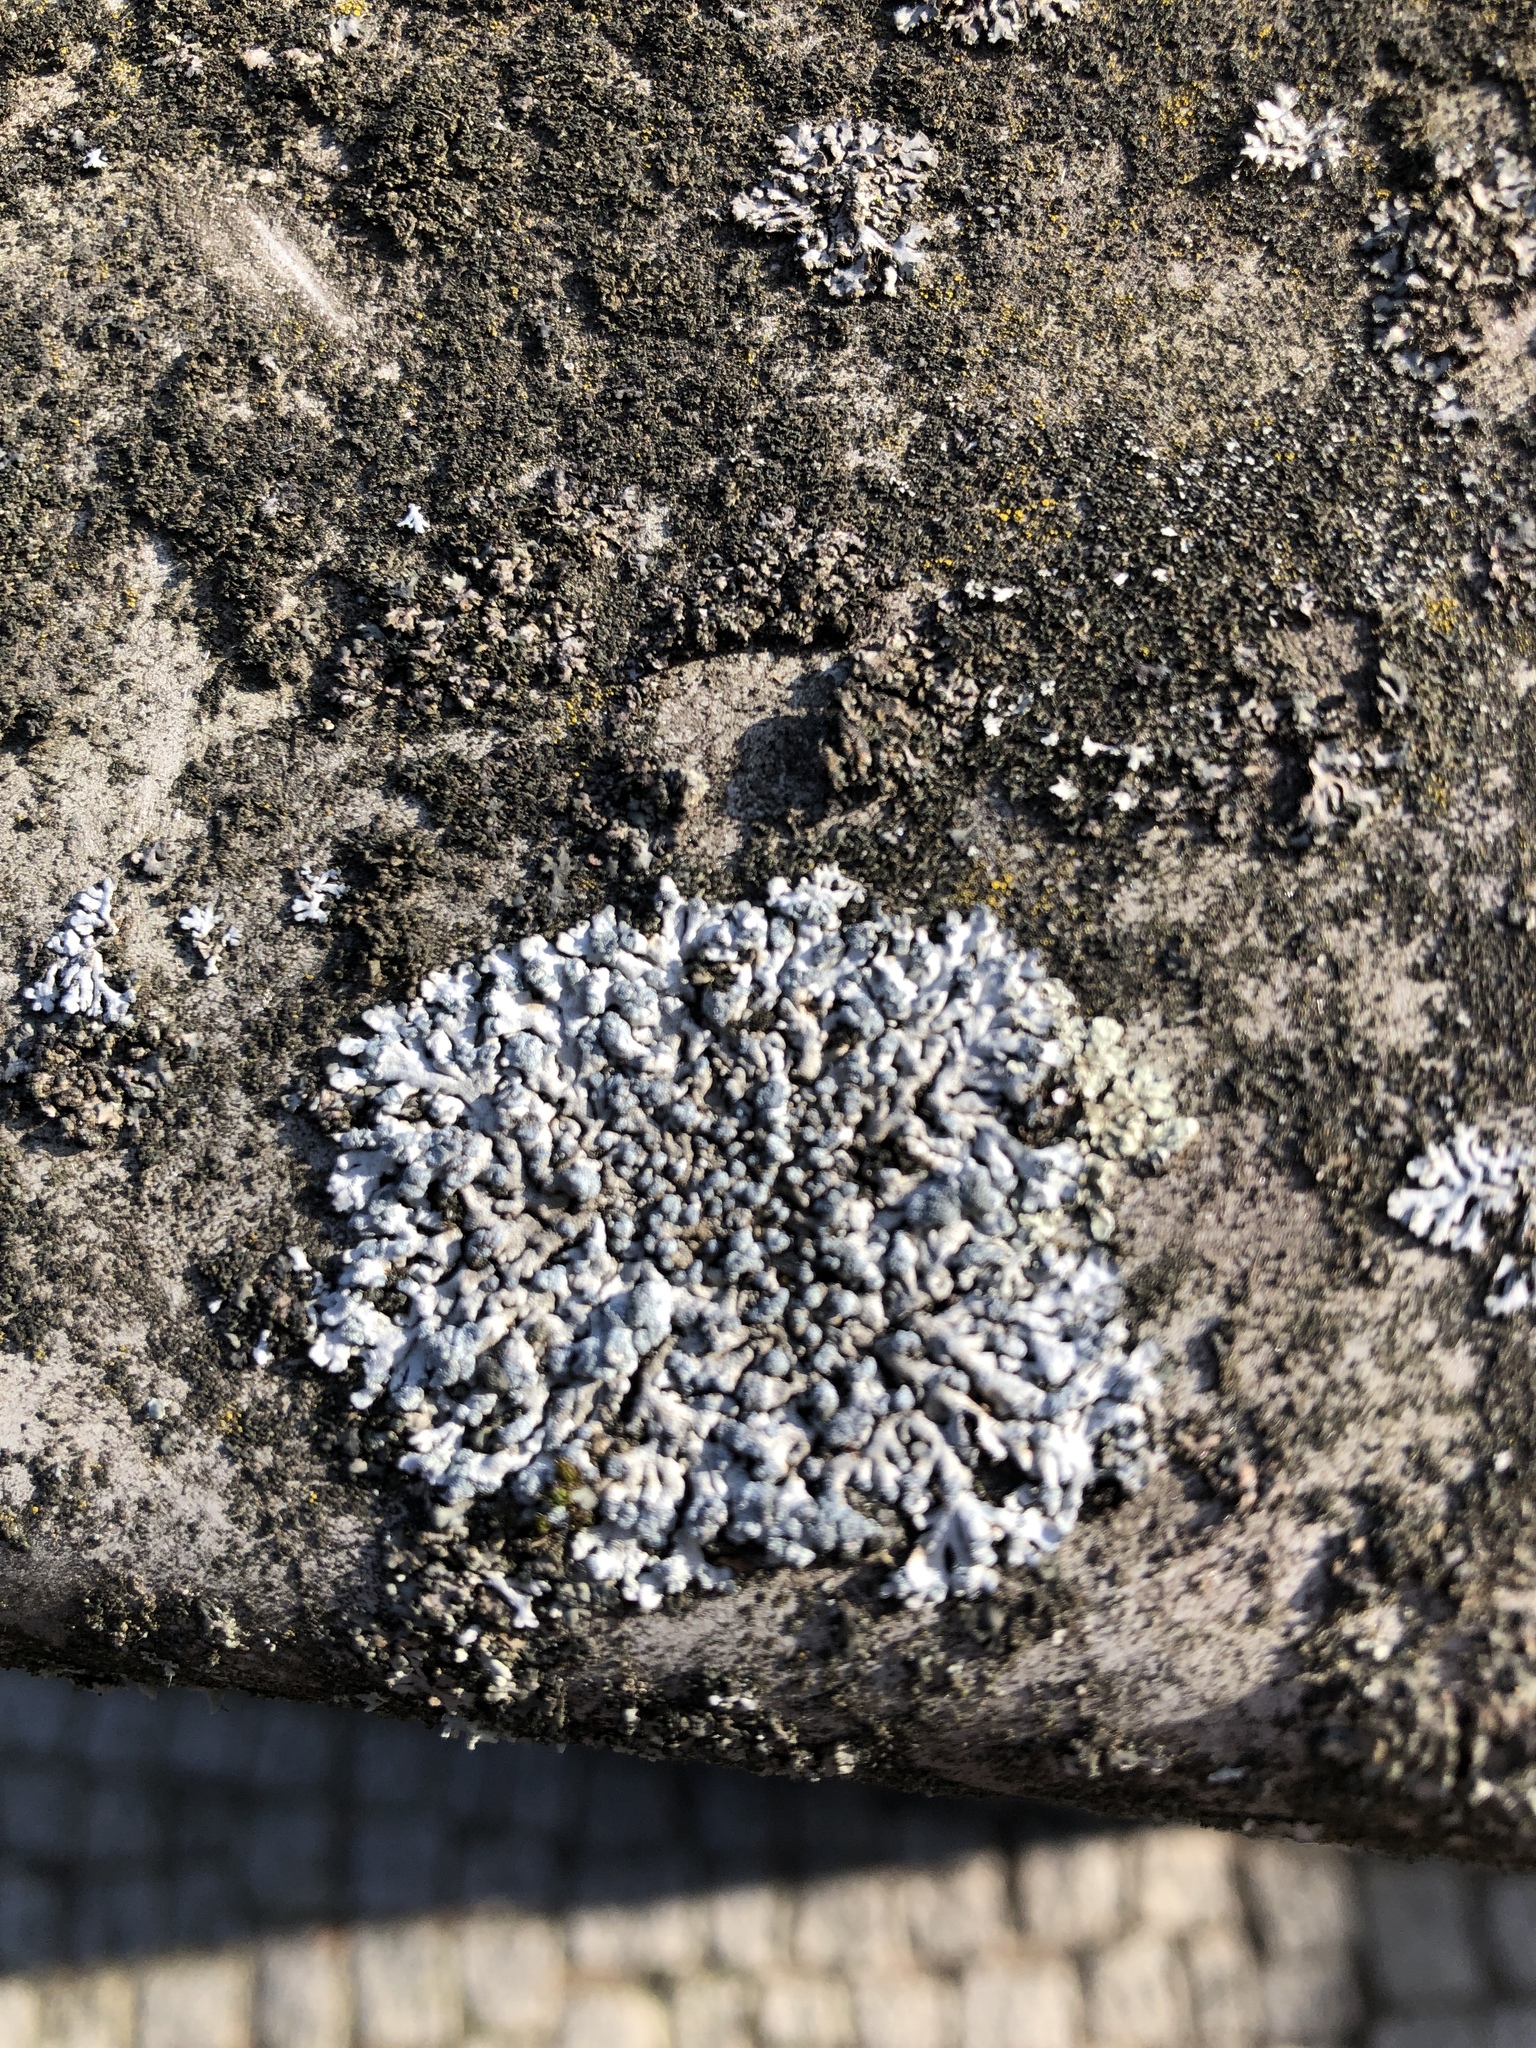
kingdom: Fungi
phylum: Ascomycota
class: Lecanoromycetes
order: Caliciales
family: Physciaceae
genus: Physcia
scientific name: Physcia caesia
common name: Blue-gray rosette lichen
